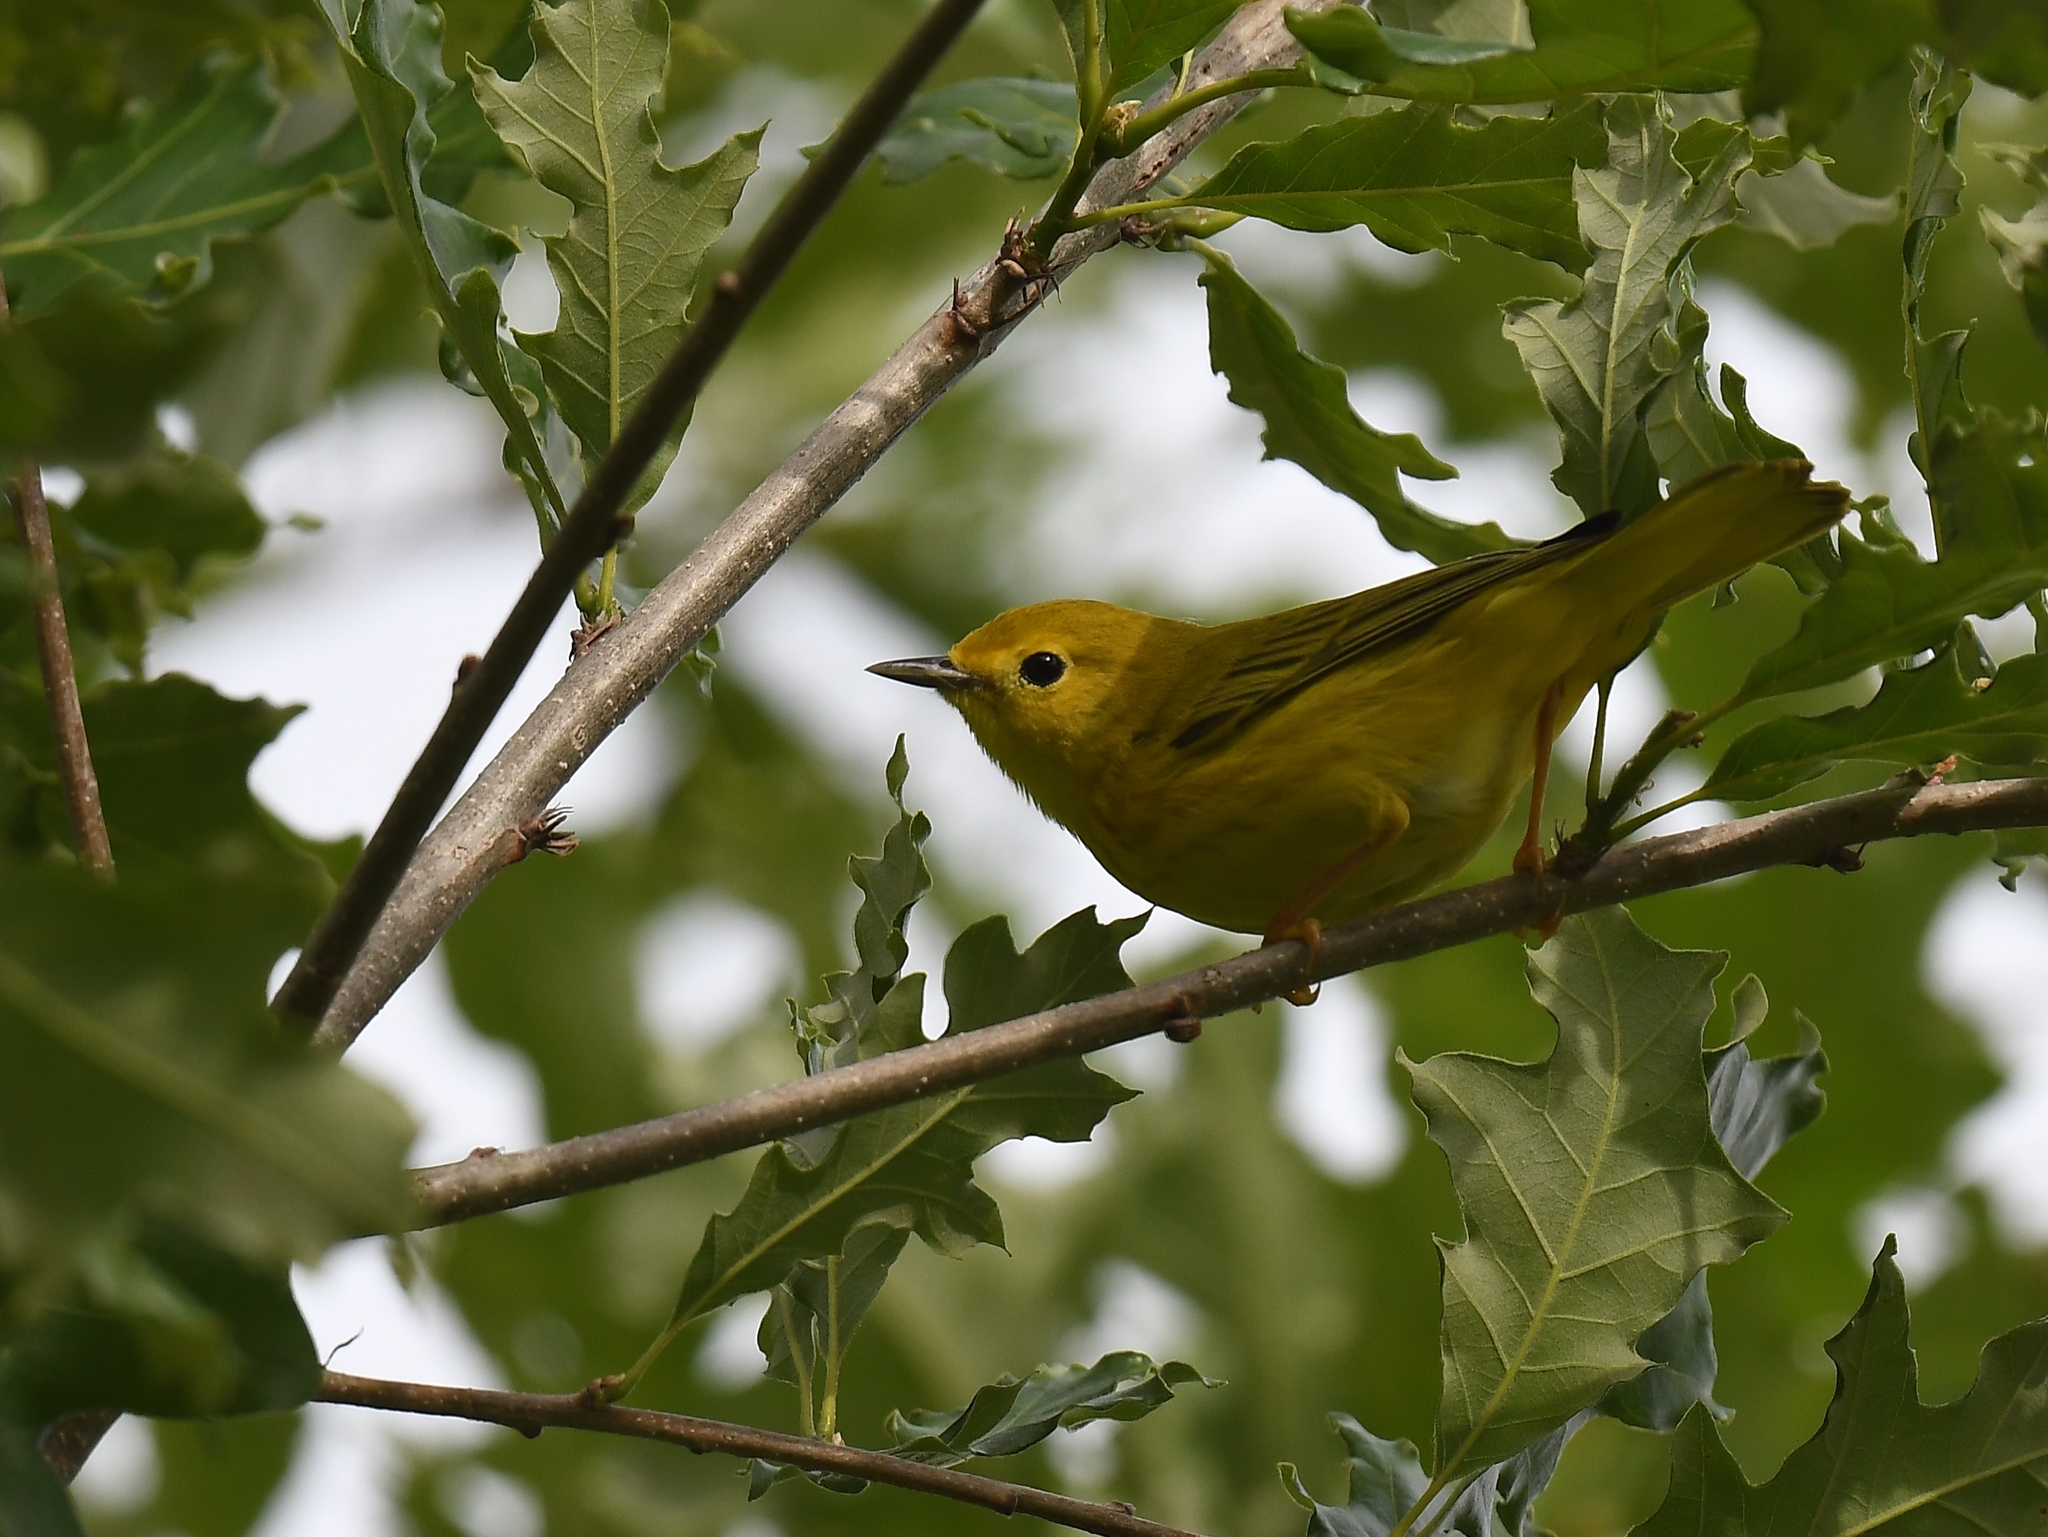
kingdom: Animalia
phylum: Chordata
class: Aves
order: Passeriformes
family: Parulidae
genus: Setophaga
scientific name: Setophaga petechia
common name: Yellow warbler
